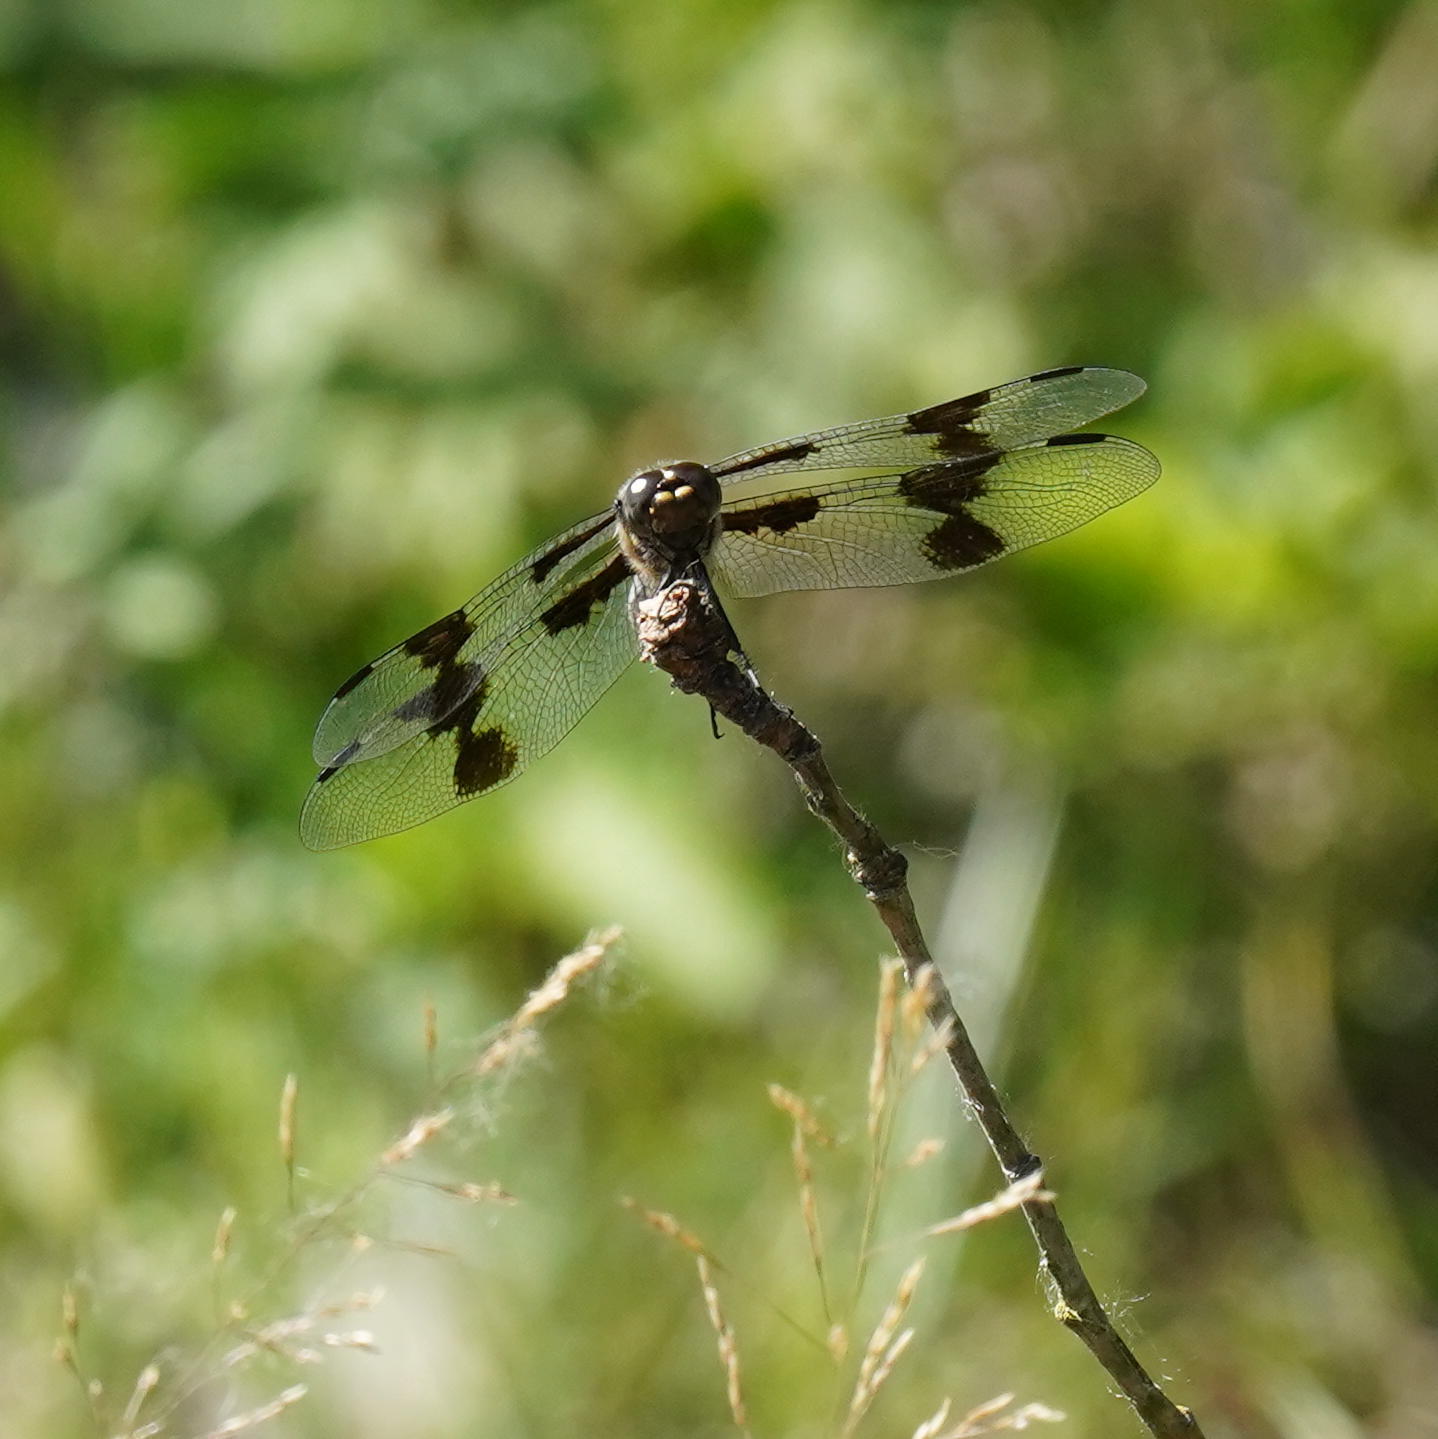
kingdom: Animalia
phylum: Arthropoda
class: Insecta
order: Odonata
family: Libellulidae
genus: Libellula
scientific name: Libellula forensis
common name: Eight-spotted skimmer
